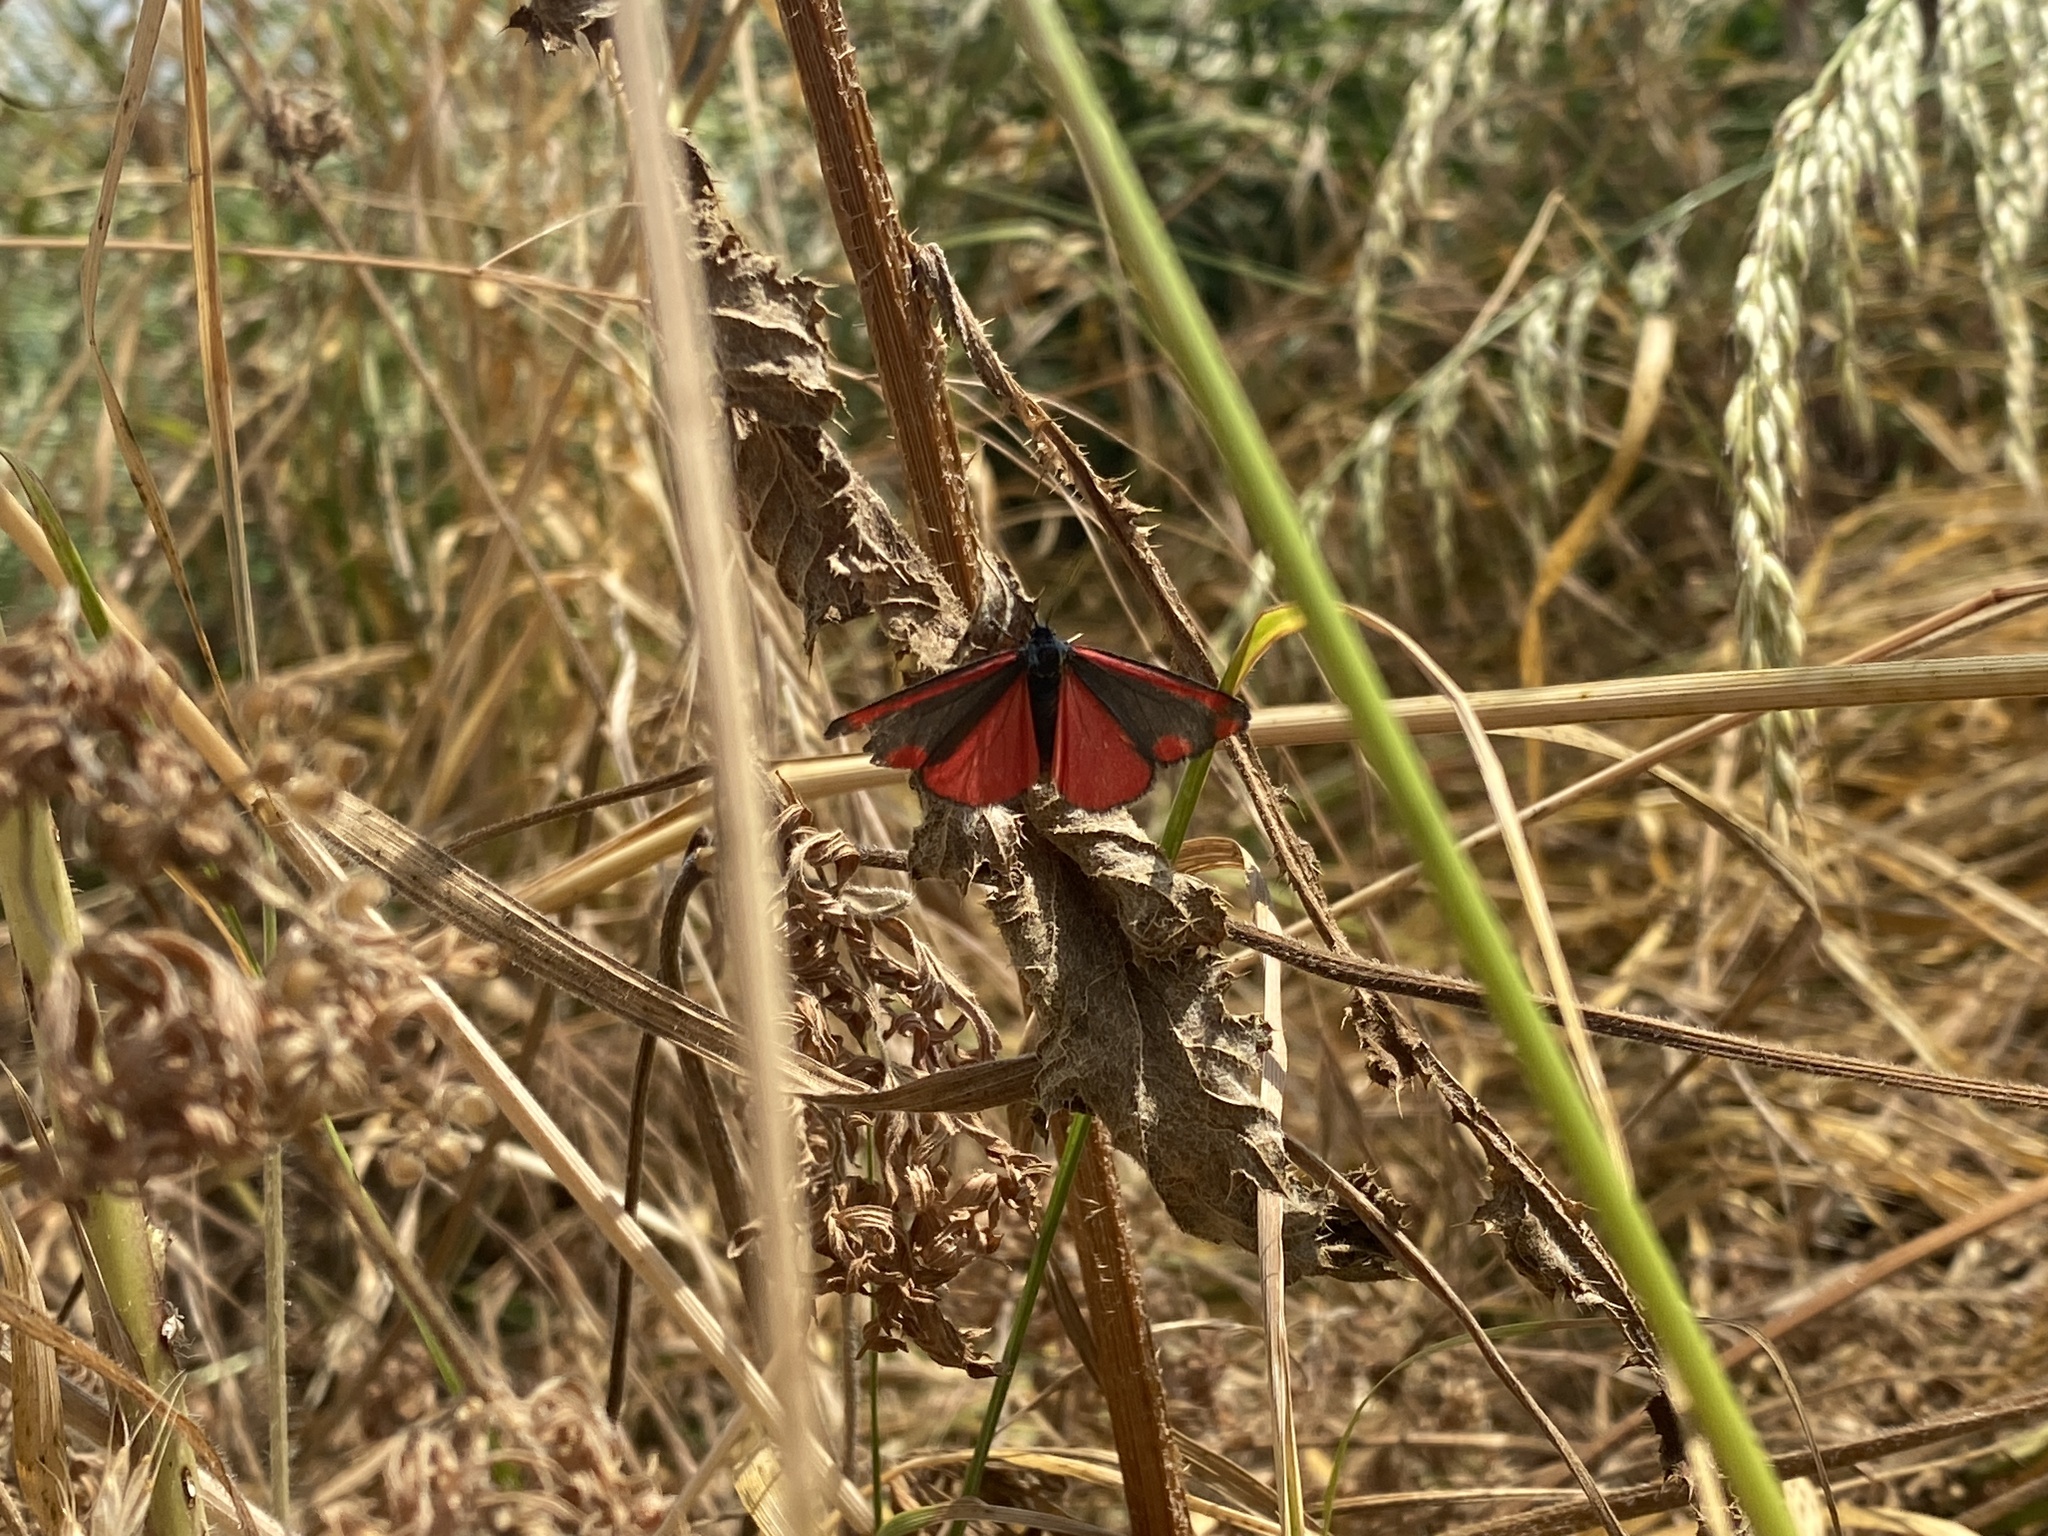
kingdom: Animalia
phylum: Arthropoda
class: Insecta
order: Lepidoptera
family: Erebidae
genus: Tyria
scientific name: Tyria jacobaeae
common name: Cinnabar
